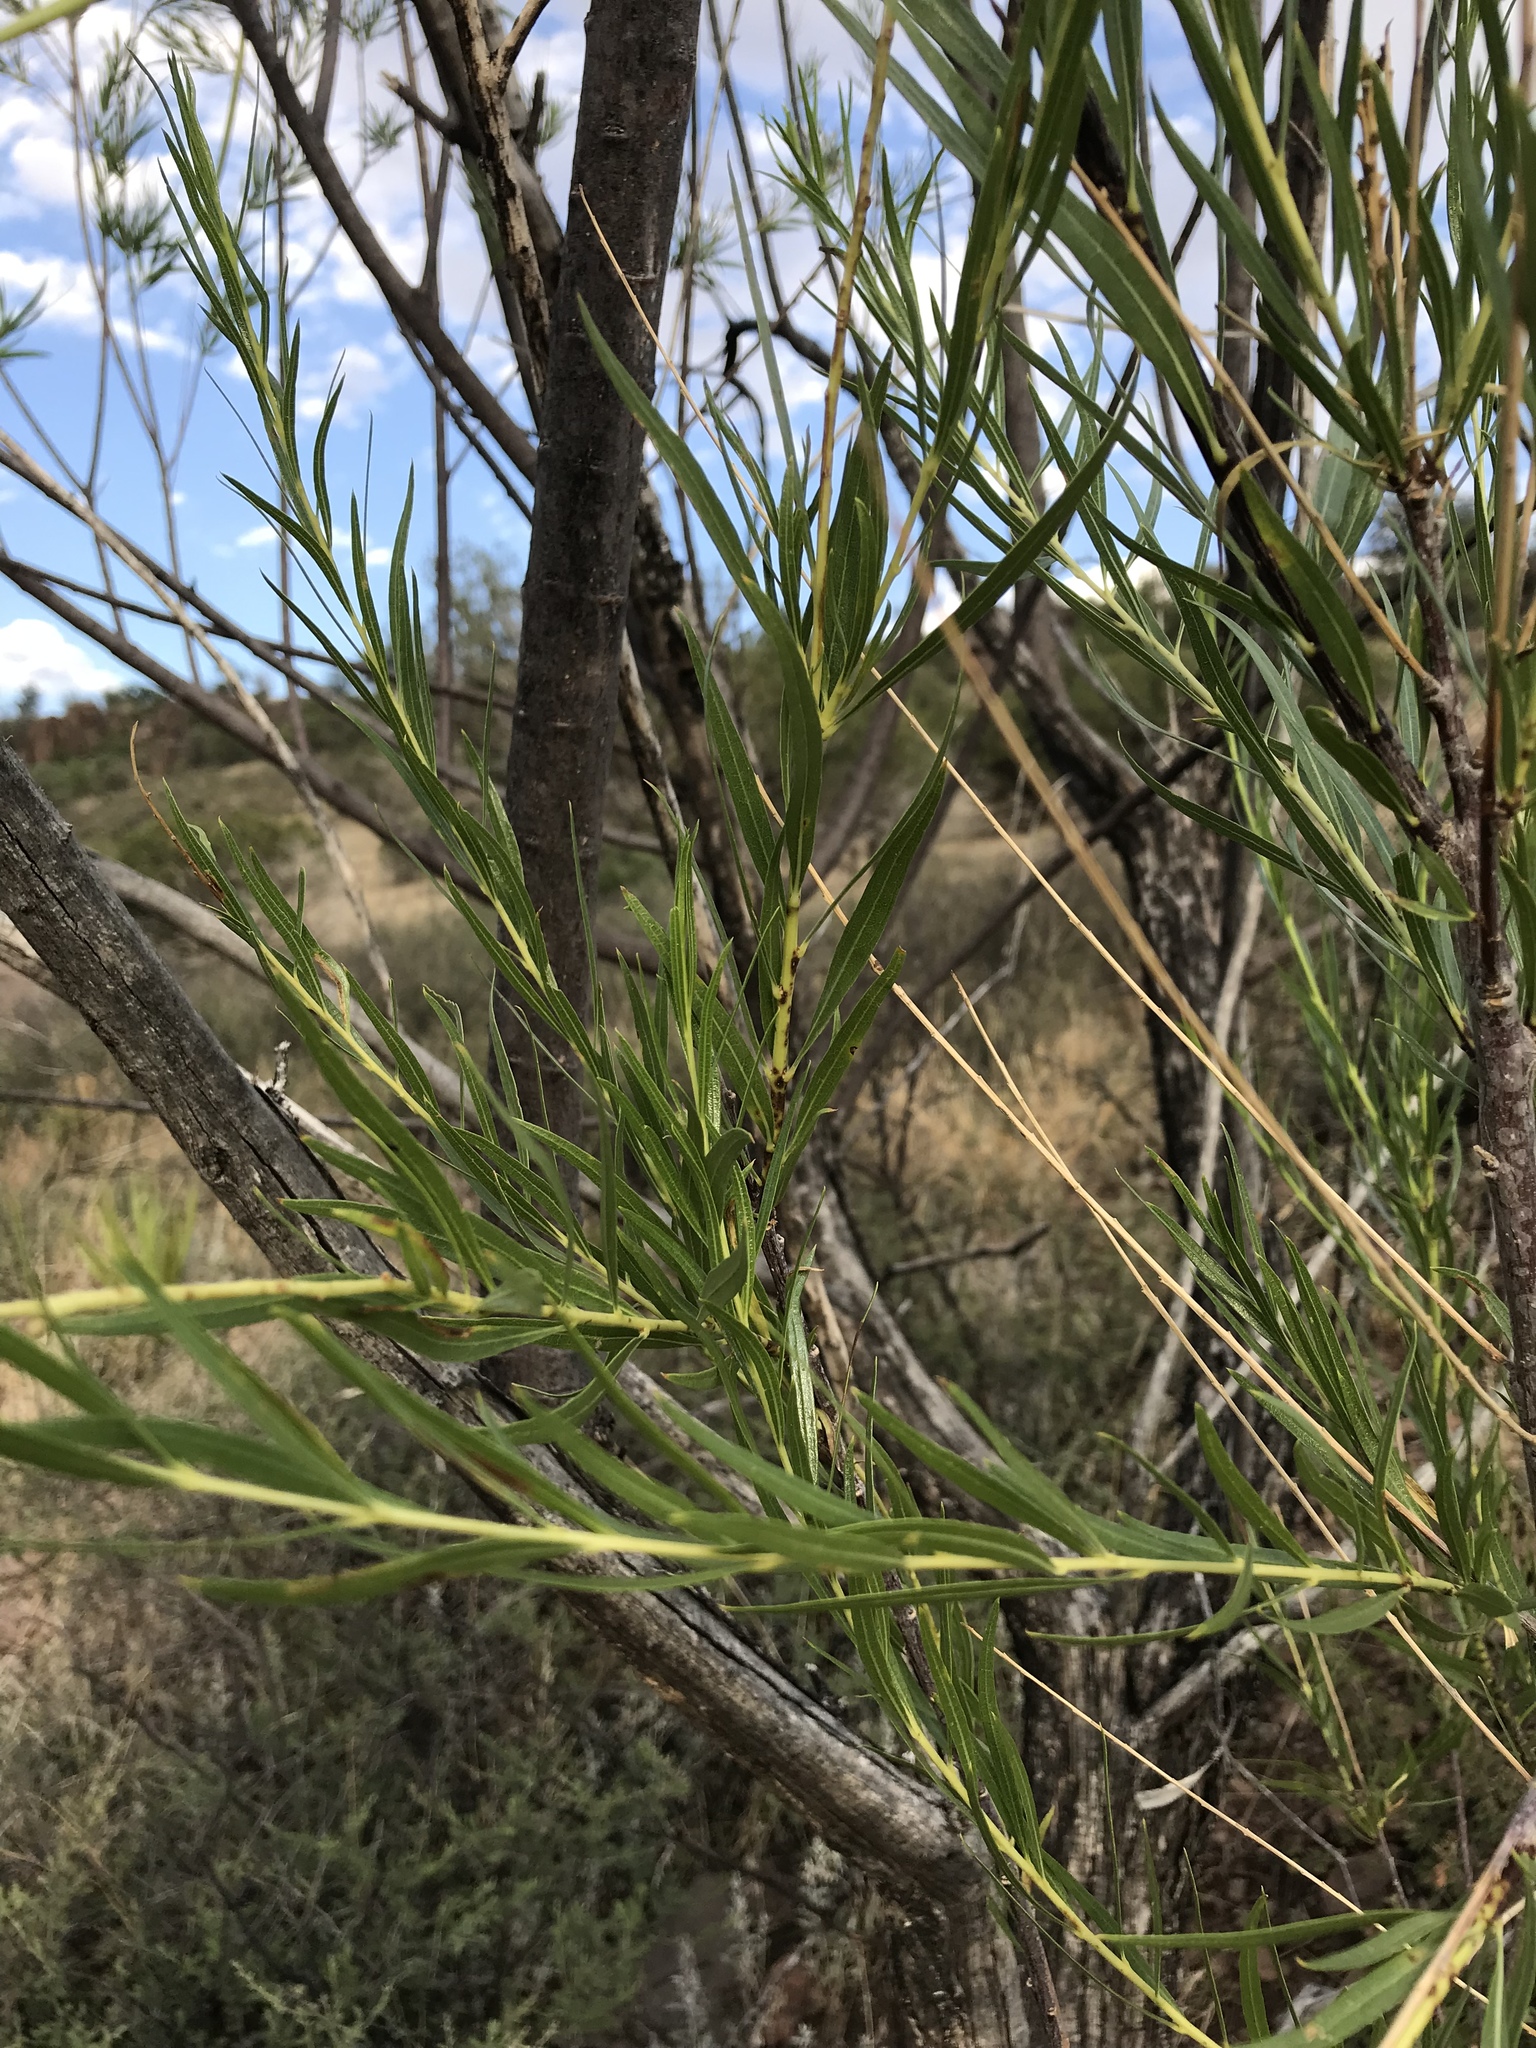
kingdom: Plantae
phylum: Tracheophyta
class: Magnoliopsida
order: Lamiales
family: Bignoniaceae
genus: Chilopsis
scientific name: Chilopsis linearis
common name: Desert-willow
